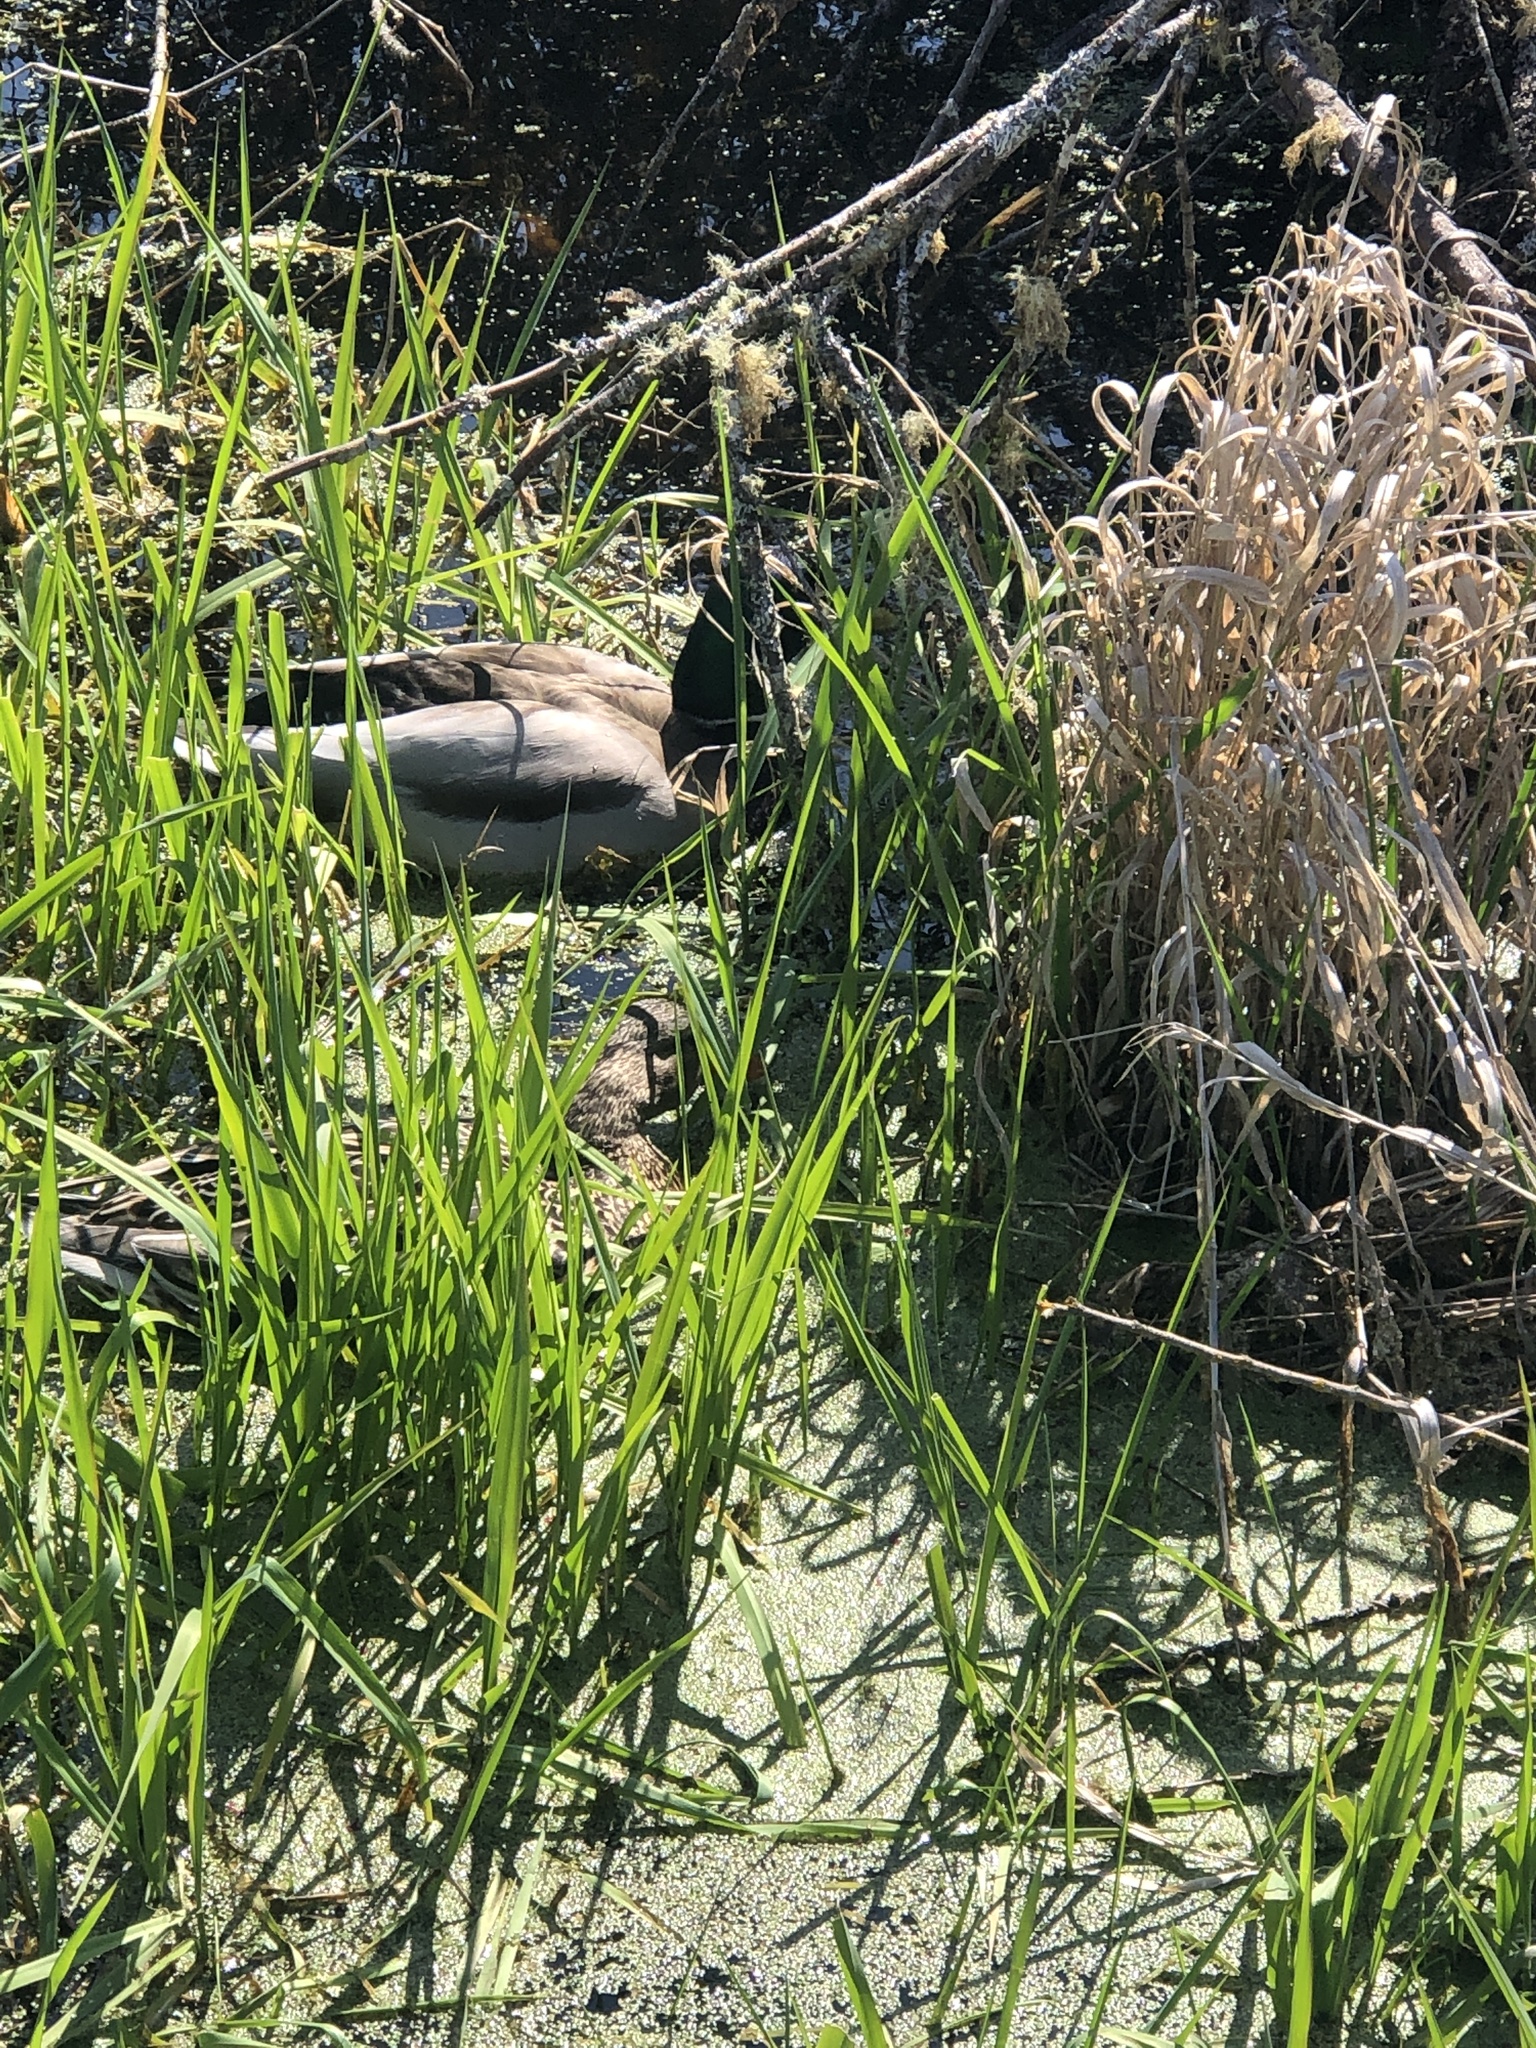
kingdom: Animalia
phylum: Chordata
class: Aves
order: Anseriformes
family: Anatidae
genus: Anas
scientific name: Anas platyrhynchos
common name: Mallard
